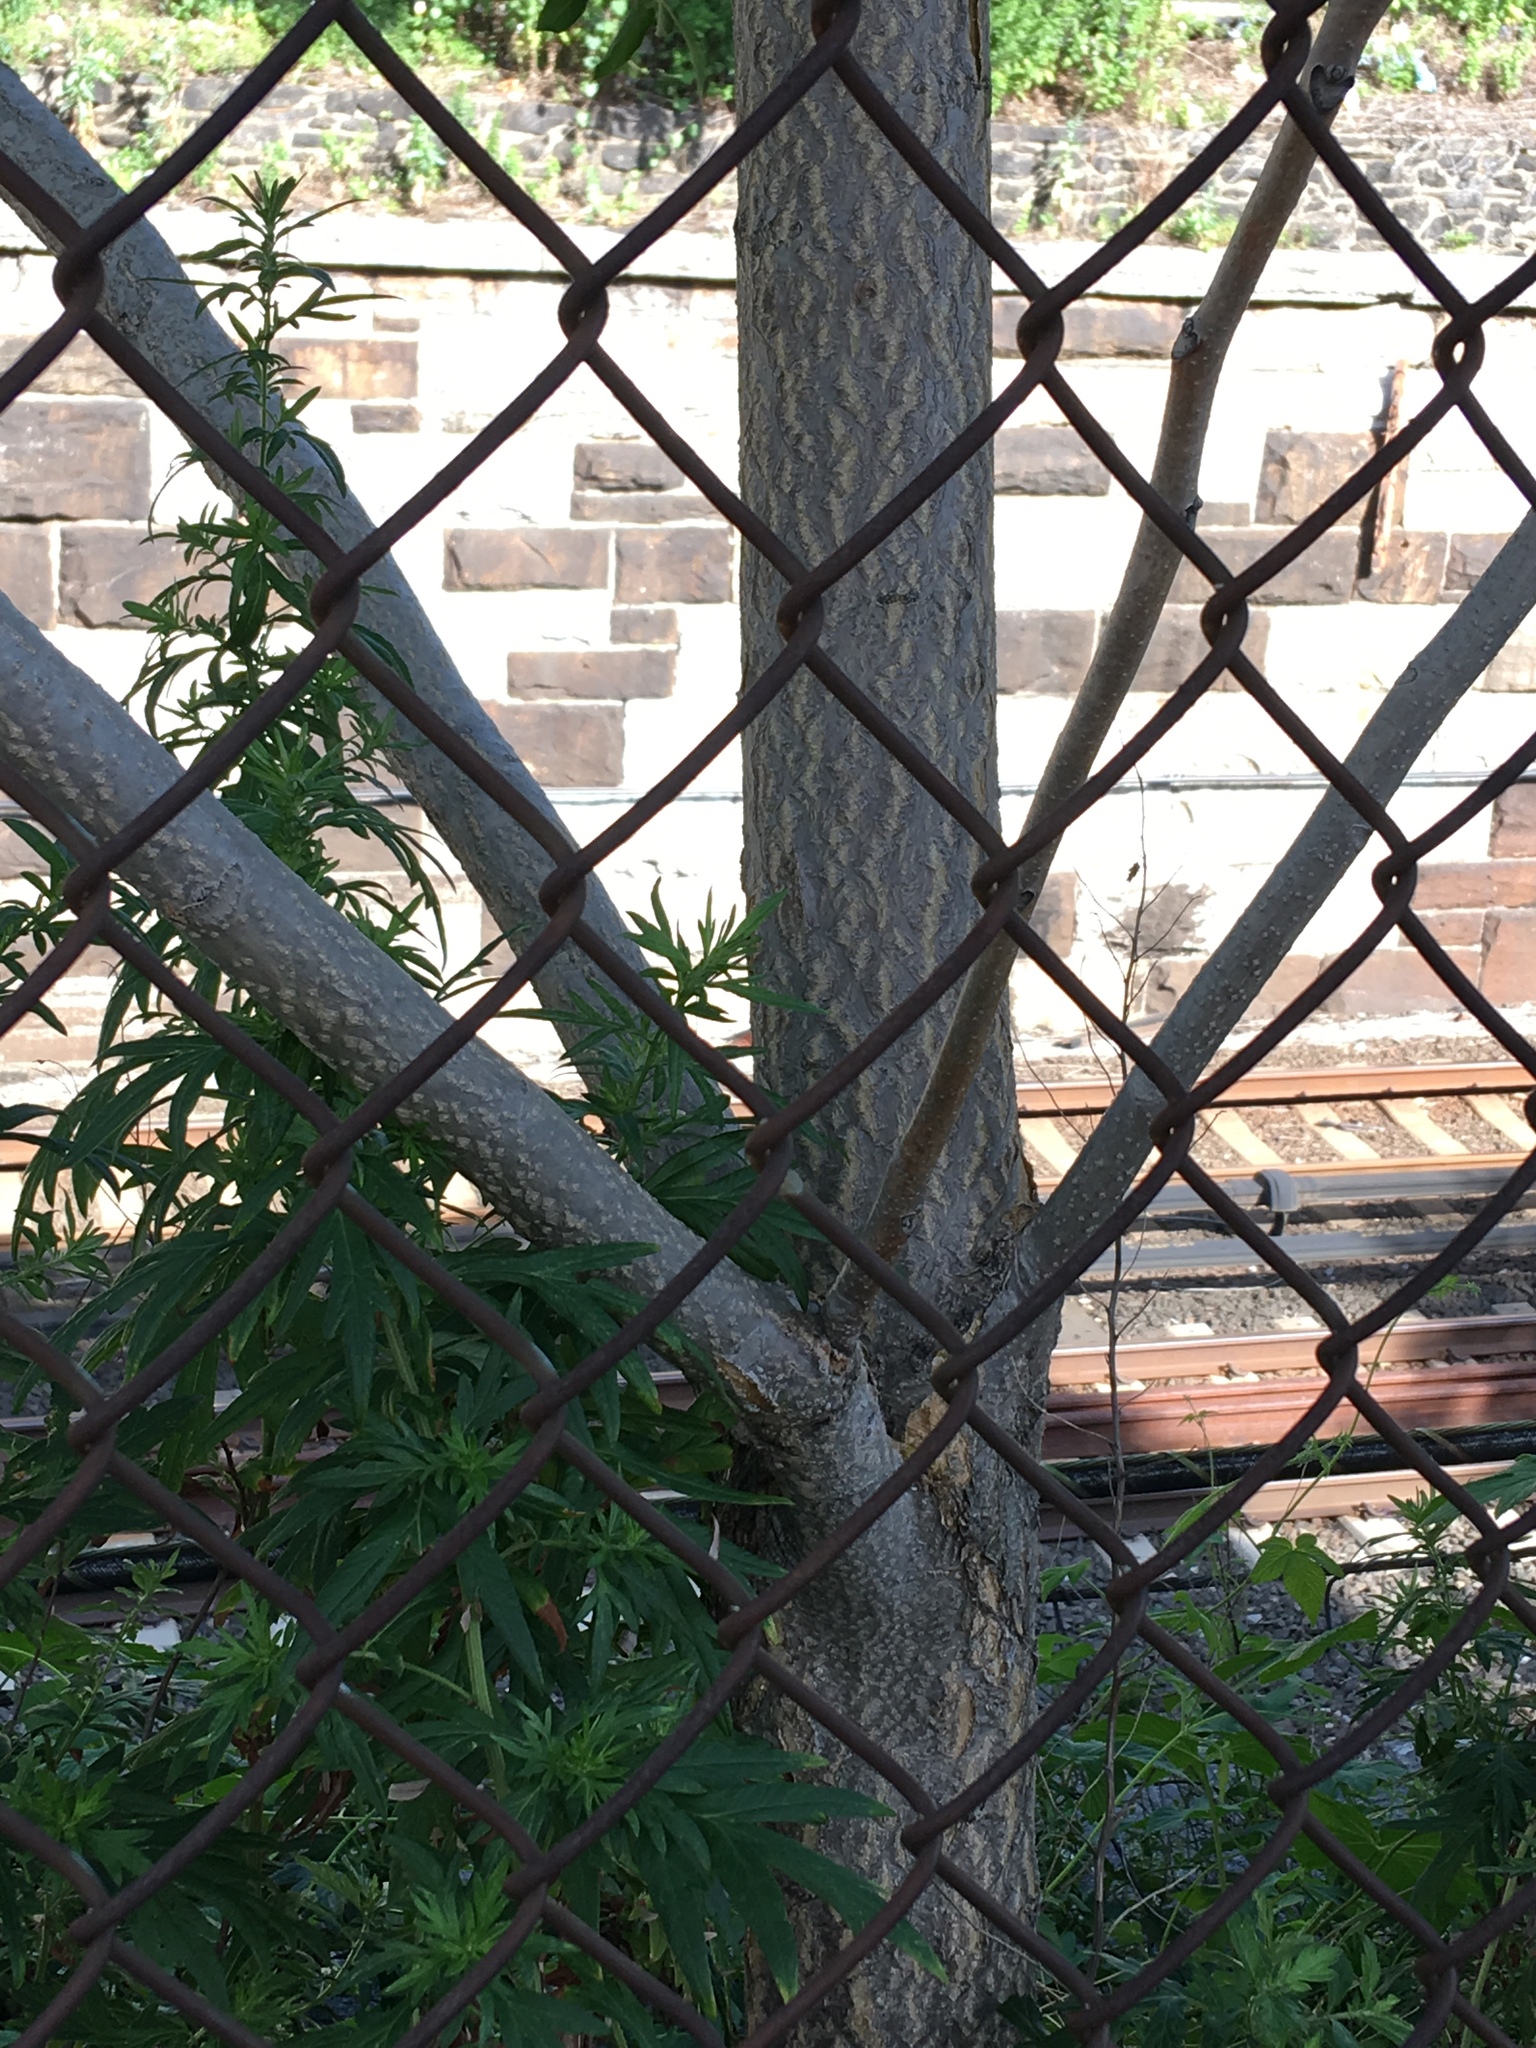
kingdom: Plantae
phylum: Tracheophyta
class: Magnoliopsida
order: Sapindales
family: Simaroubaceae
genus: Ailanthus
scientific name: Ailanthus altissima
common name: Tree-of-heaven
